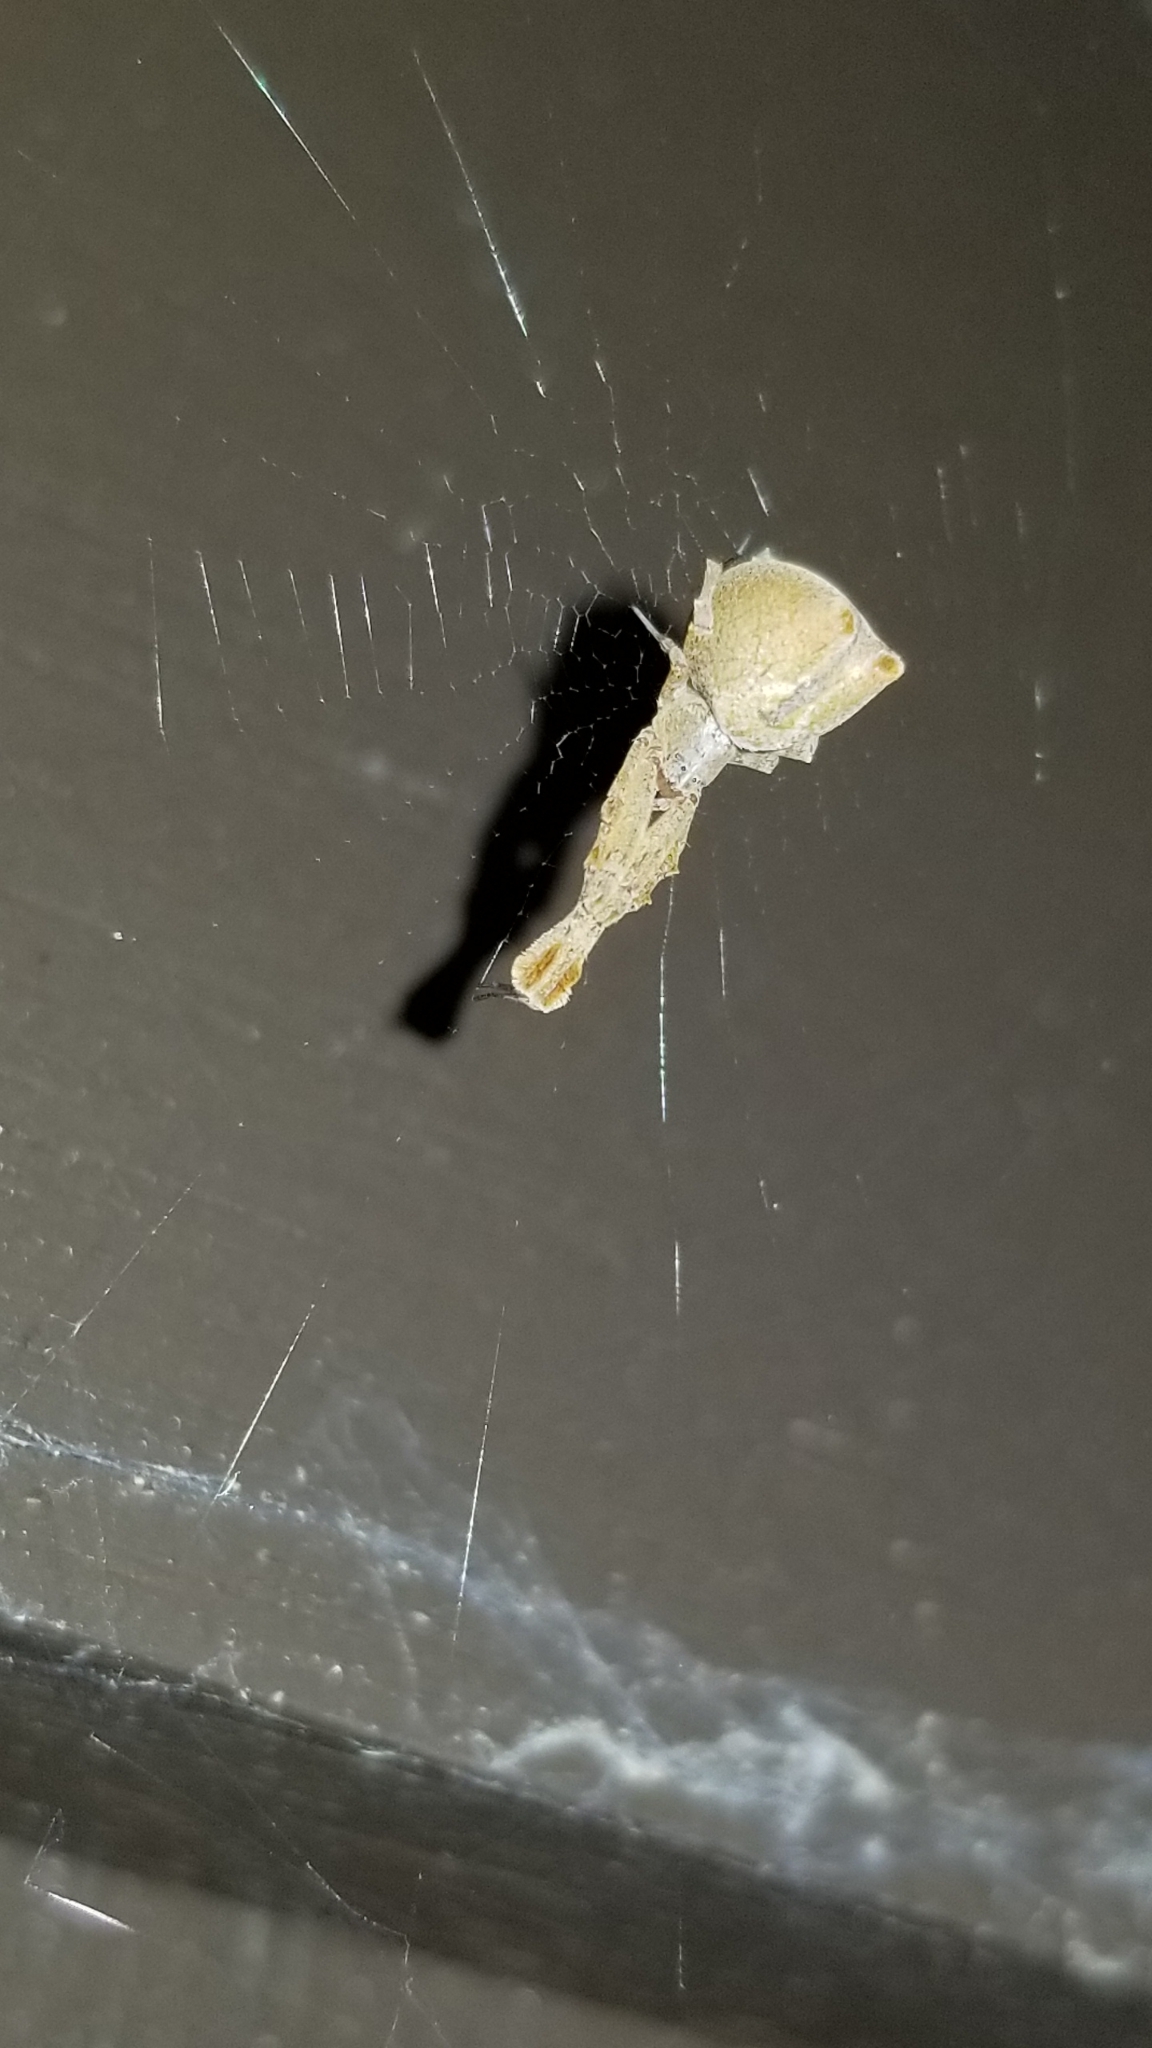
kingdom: Animalia
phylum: Arthropoda
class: Arachnida
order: Araneae
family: Uloboridae
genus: Uloborus
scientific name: Uloborus glomosus
